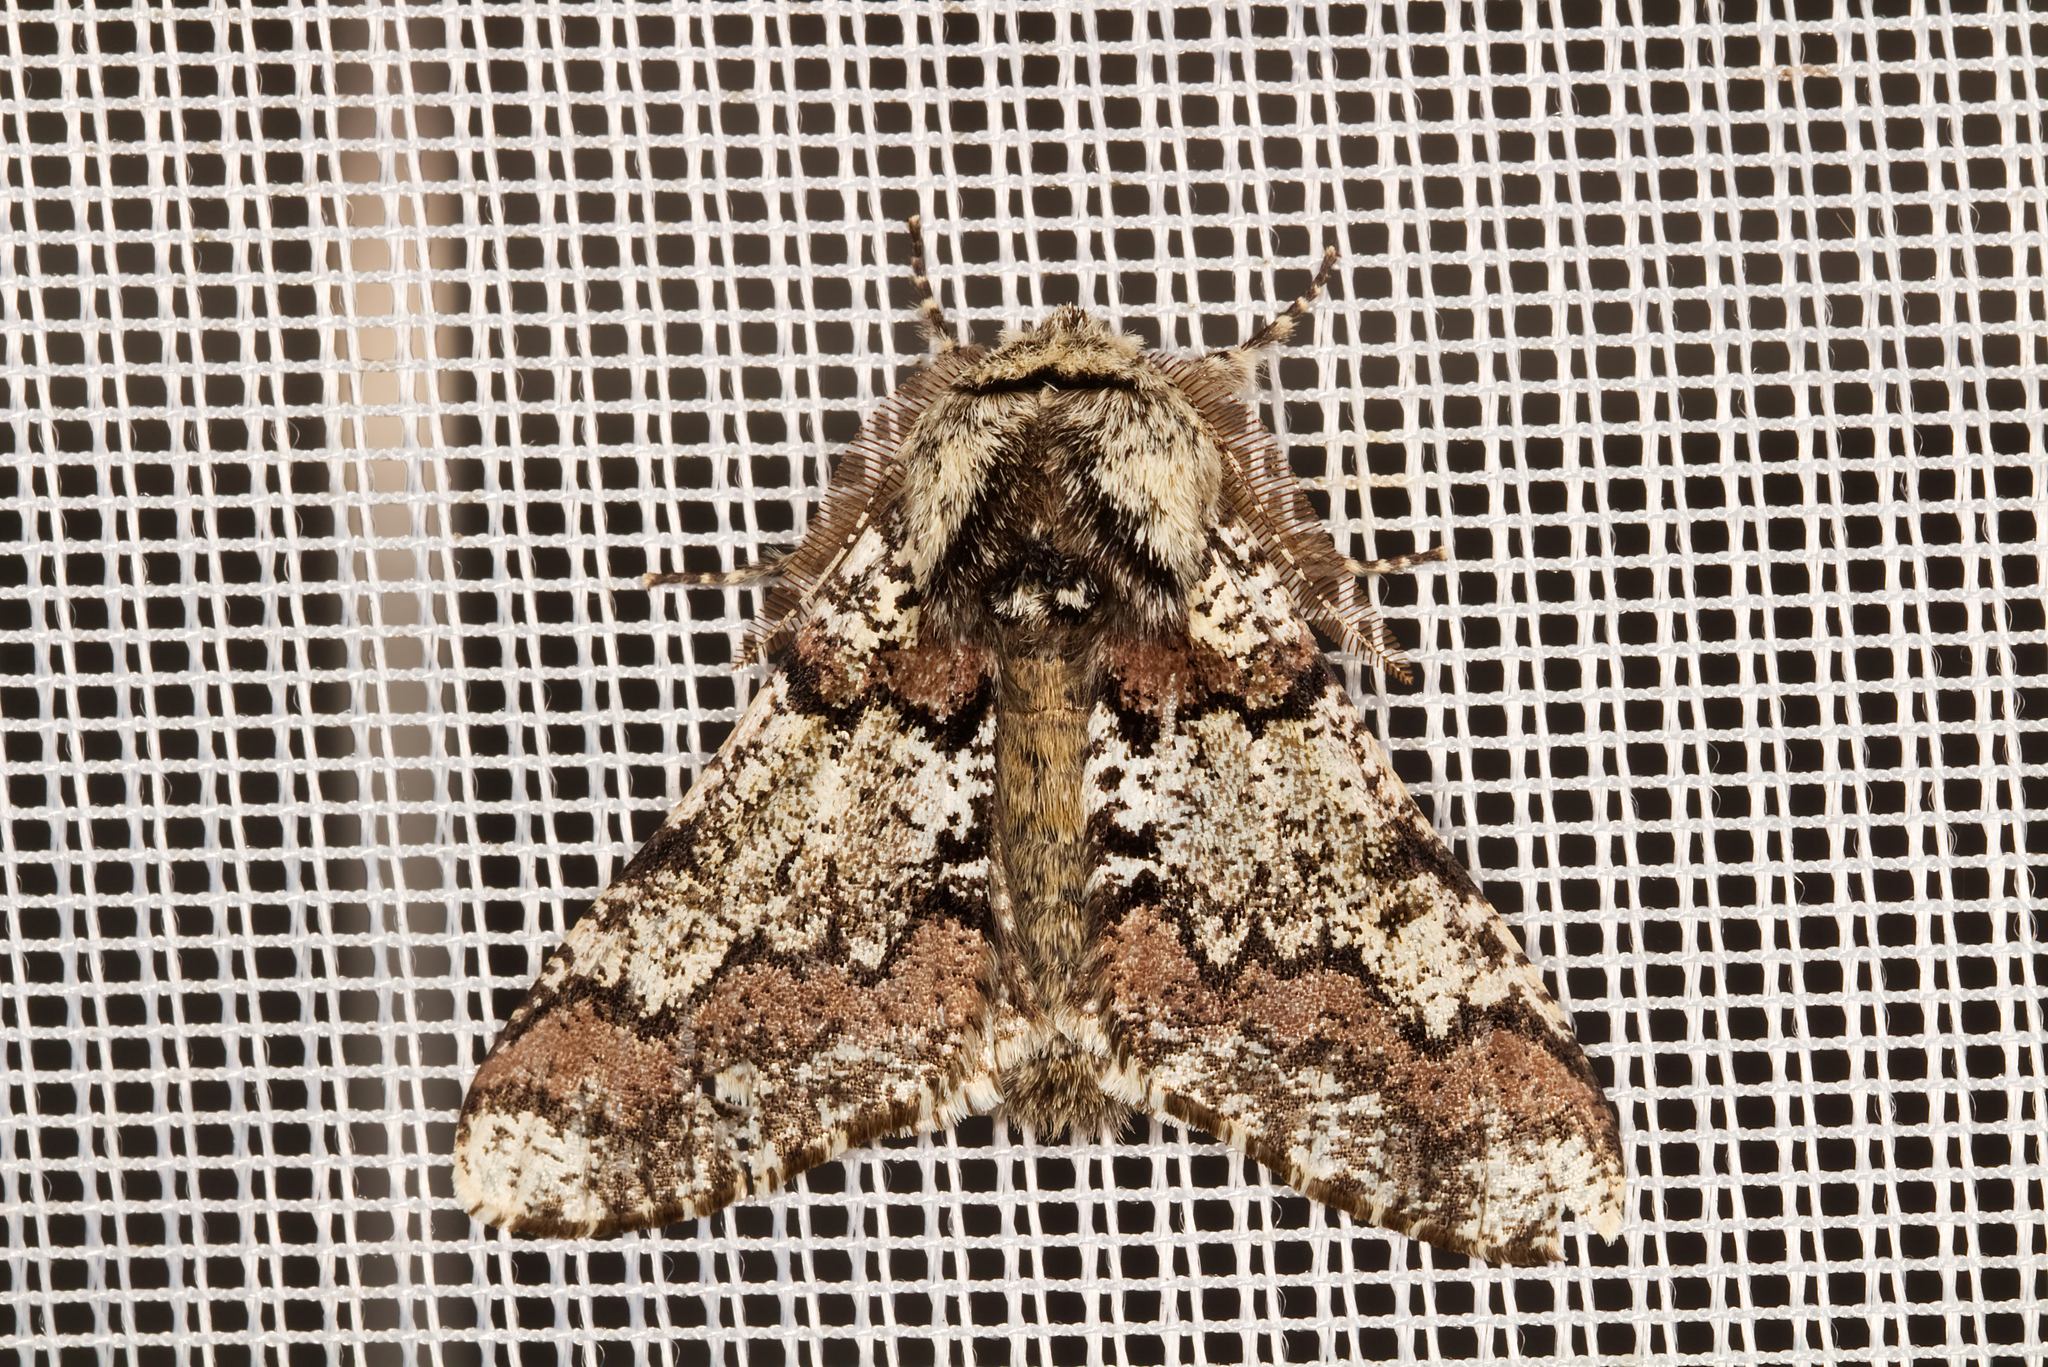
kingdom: Animalia
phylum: Arthropoda
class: Insecta
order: Lepidoptera
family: Geometridae
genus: Biston
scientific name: Biston strataria
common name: Oak beauty
